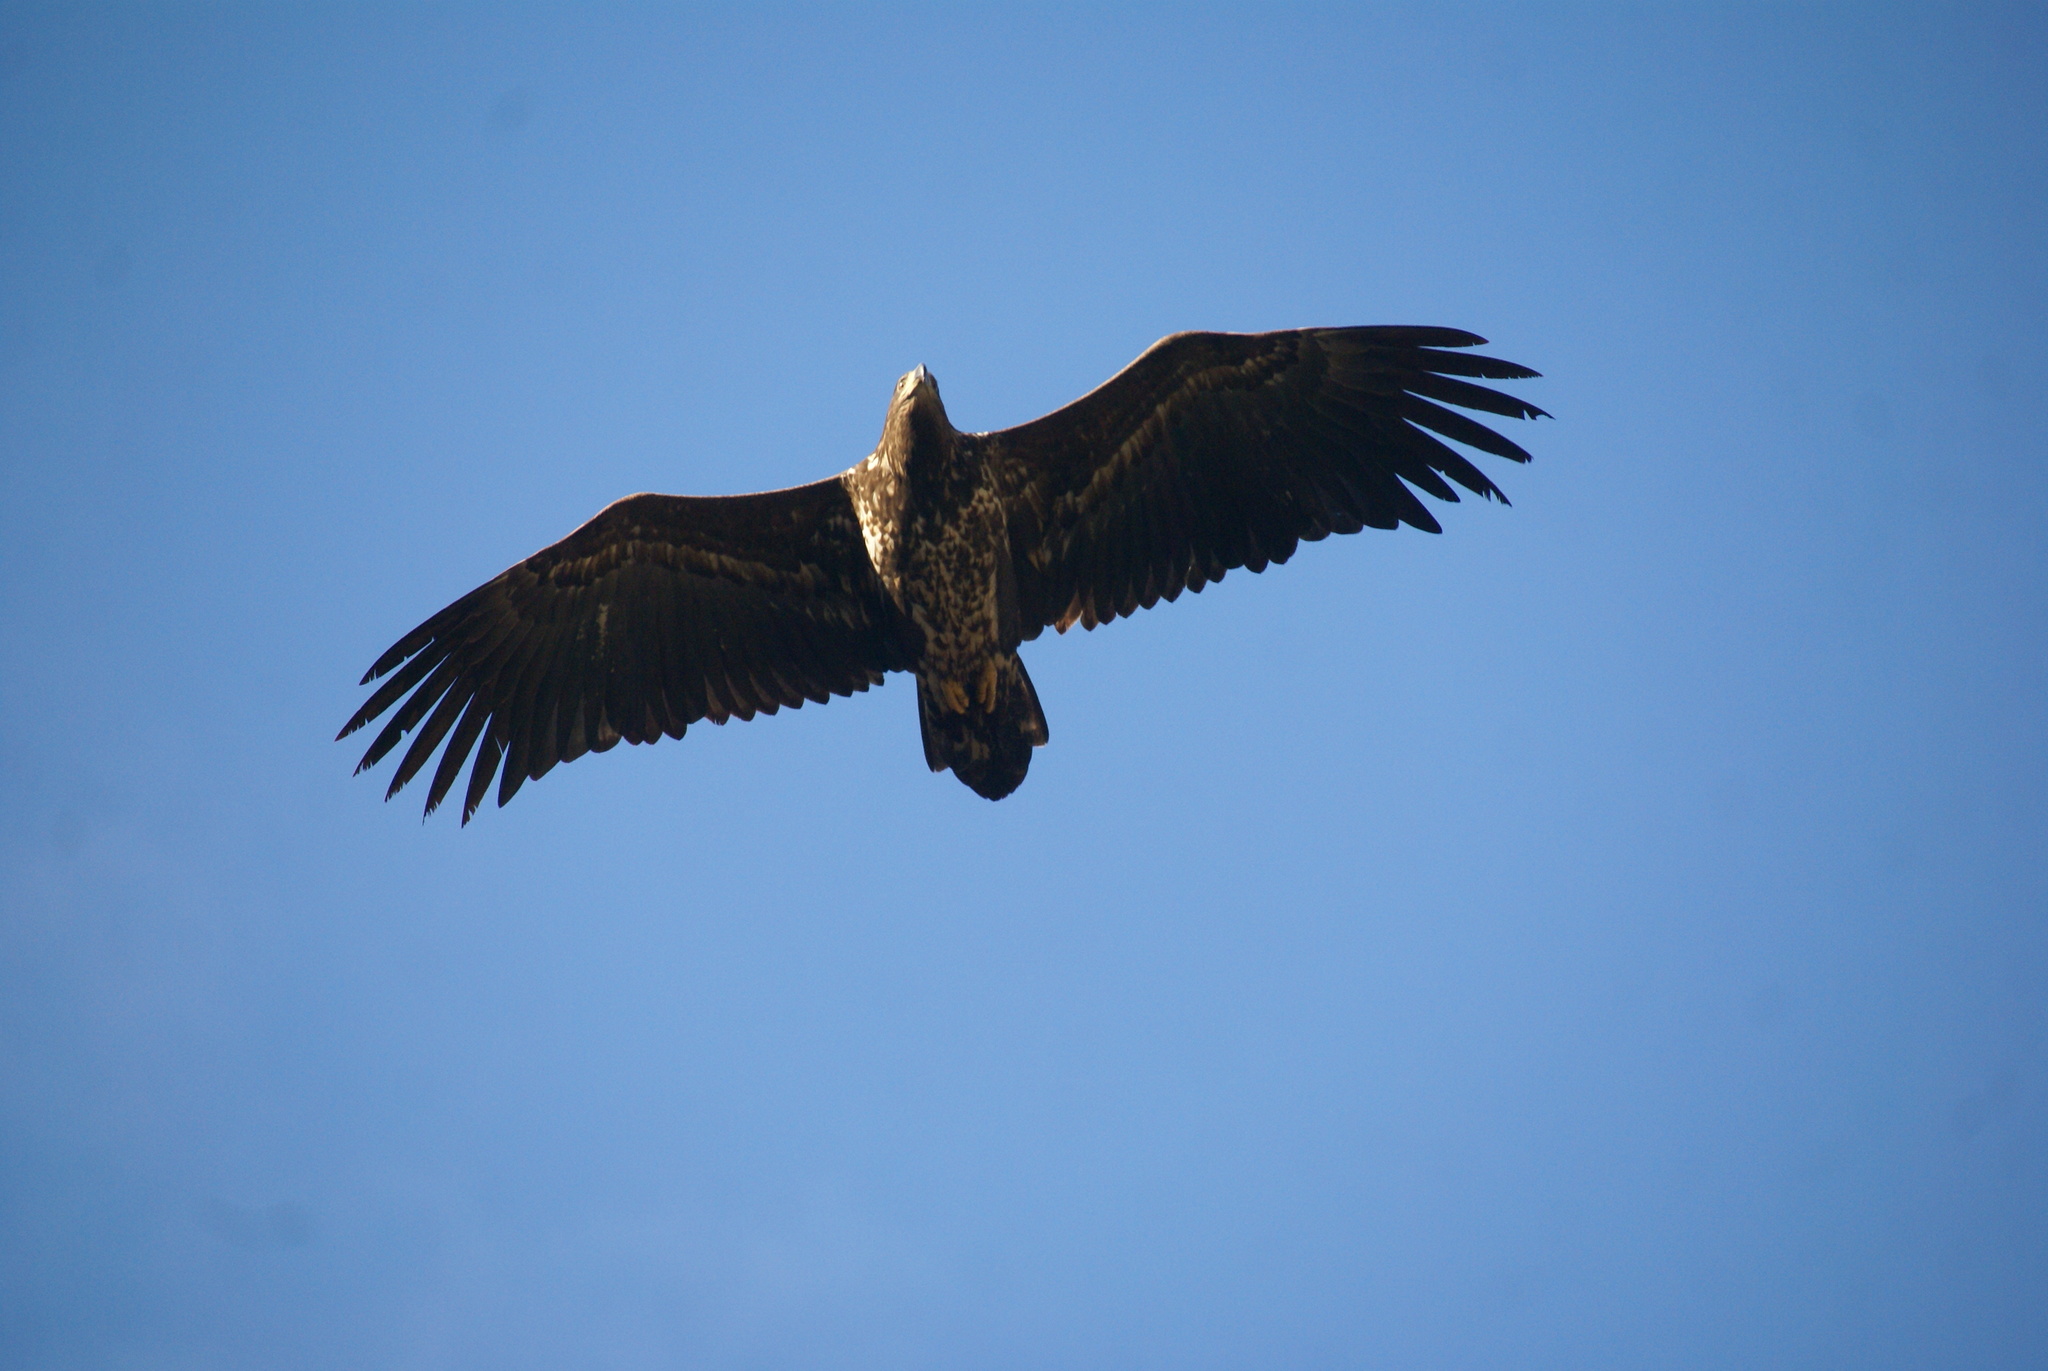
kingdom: Animalia
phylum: Chordata
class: Aves
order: Accipitriformes
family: Accipitridae
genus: Haliaeetus
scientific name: Haliaeetus albicilla
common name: White-tailed eagle
